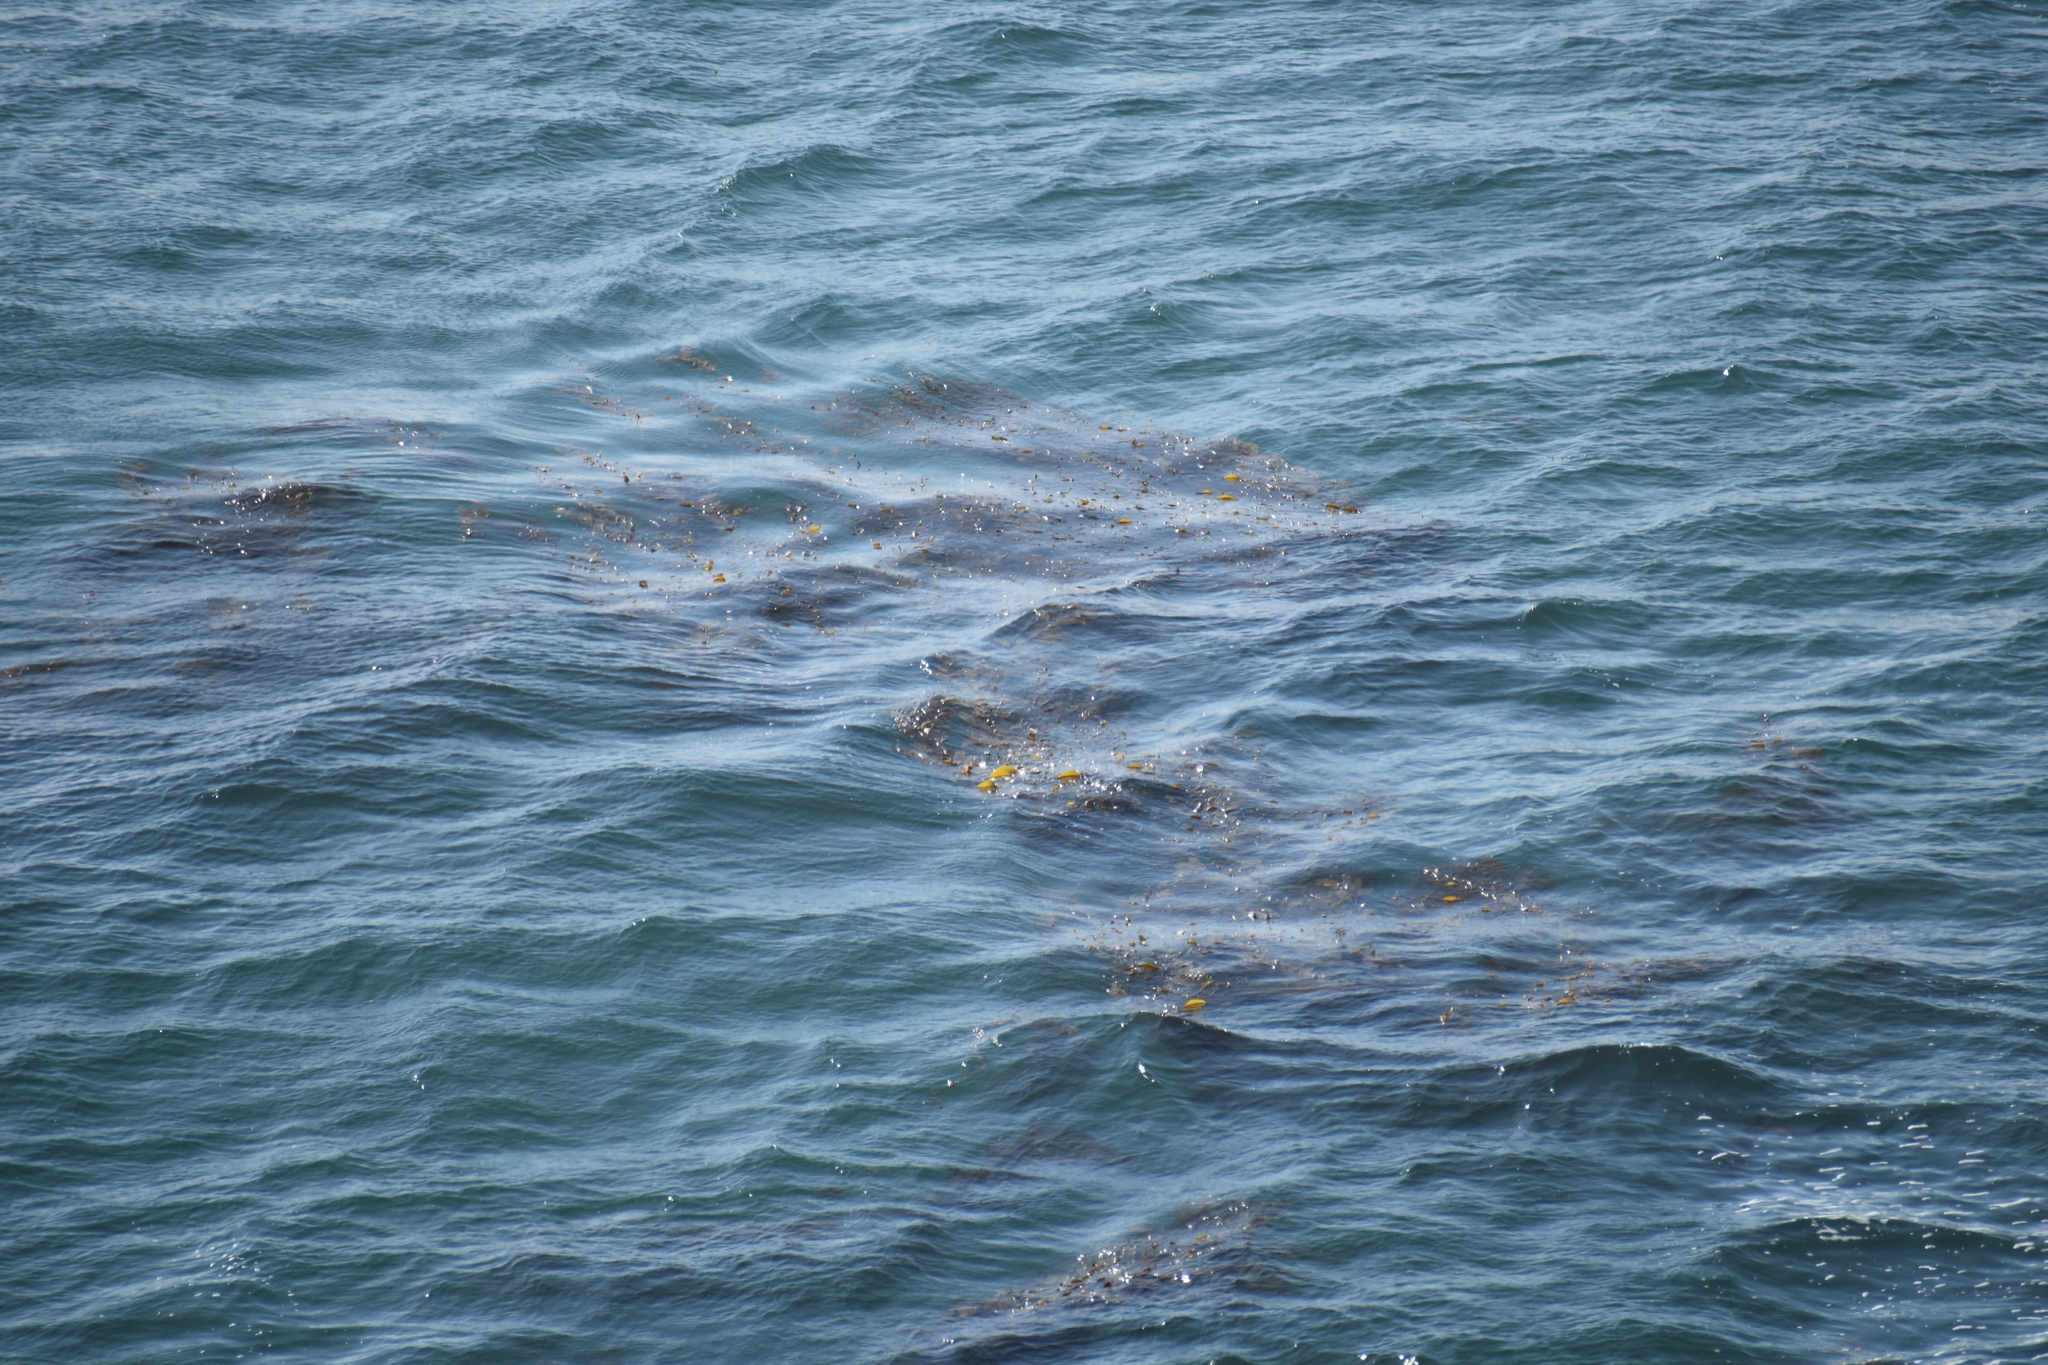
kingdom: Chromista
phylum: Ochrophyta
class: Phaeophyceae
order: Laminariales
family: Laminariaceae
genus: Macrocystis
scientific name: Macrocystis pyrifera
